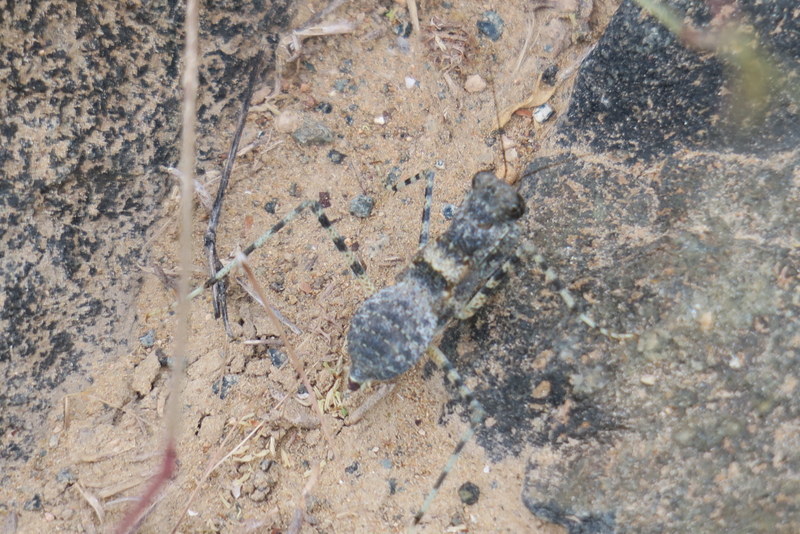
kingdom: Animalia
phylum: Arthropoda
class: Insecta
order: Mantodea
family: Eremiaphilidae
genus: Eremiaphila
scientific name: Eremiaphila braueri
